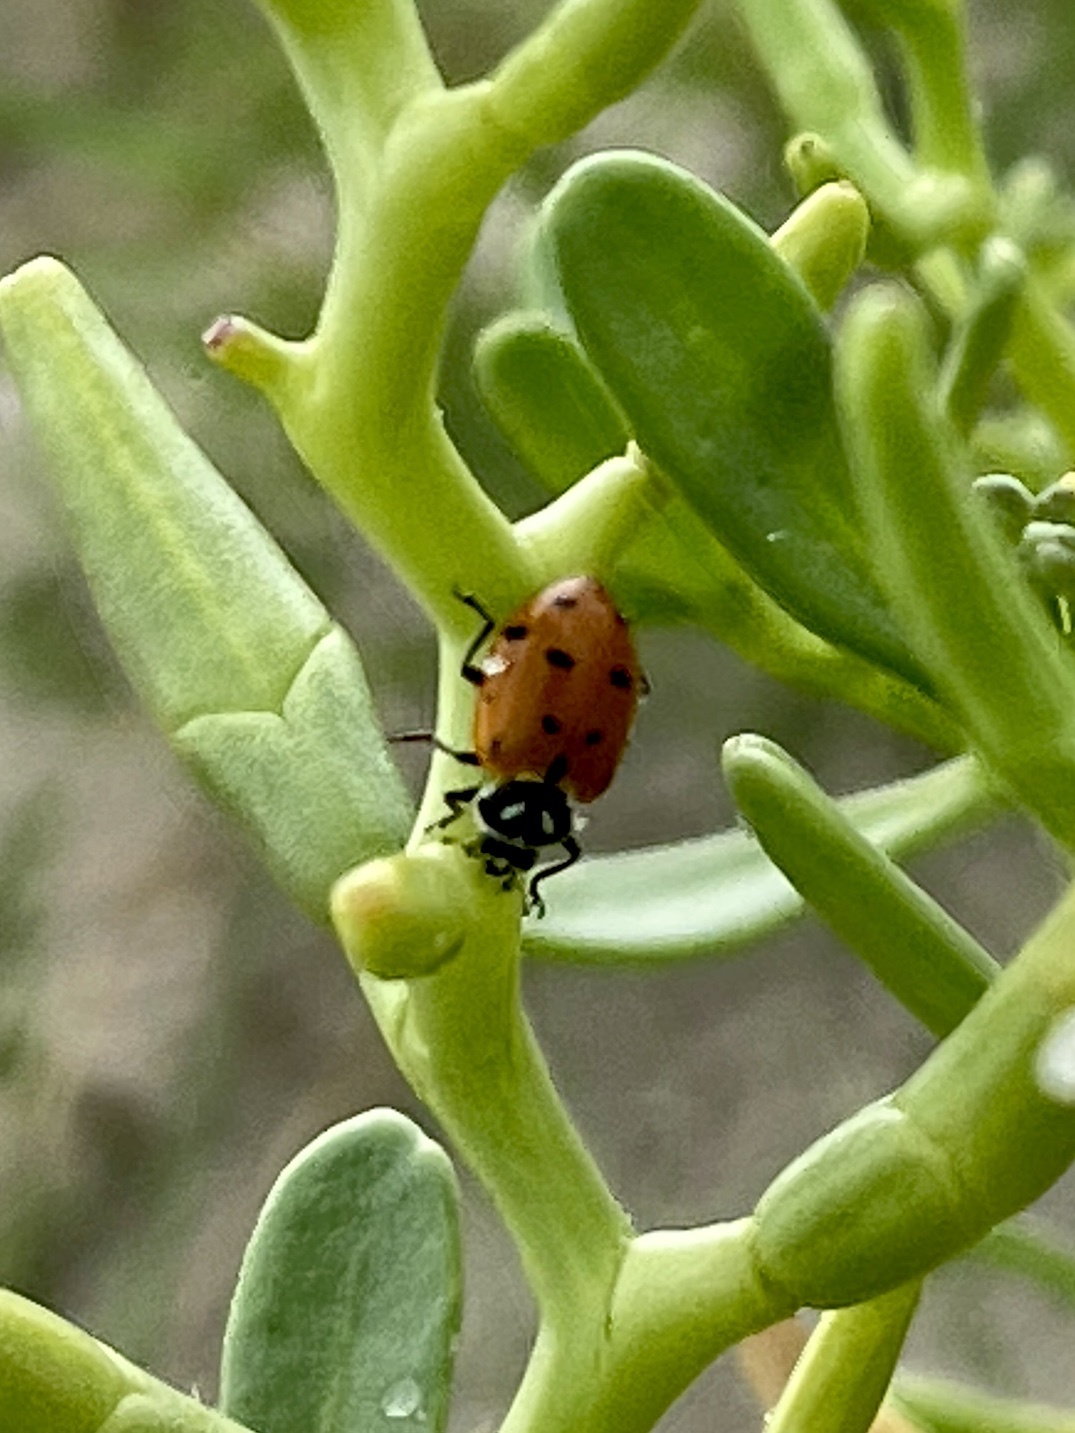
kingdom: Animalia
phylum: Arthropoda
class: Insecta
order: Coleoptera
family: Coccinellidae
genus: Hippodamia
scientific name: Hippodamia convergens
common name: Convergent lady beetle
